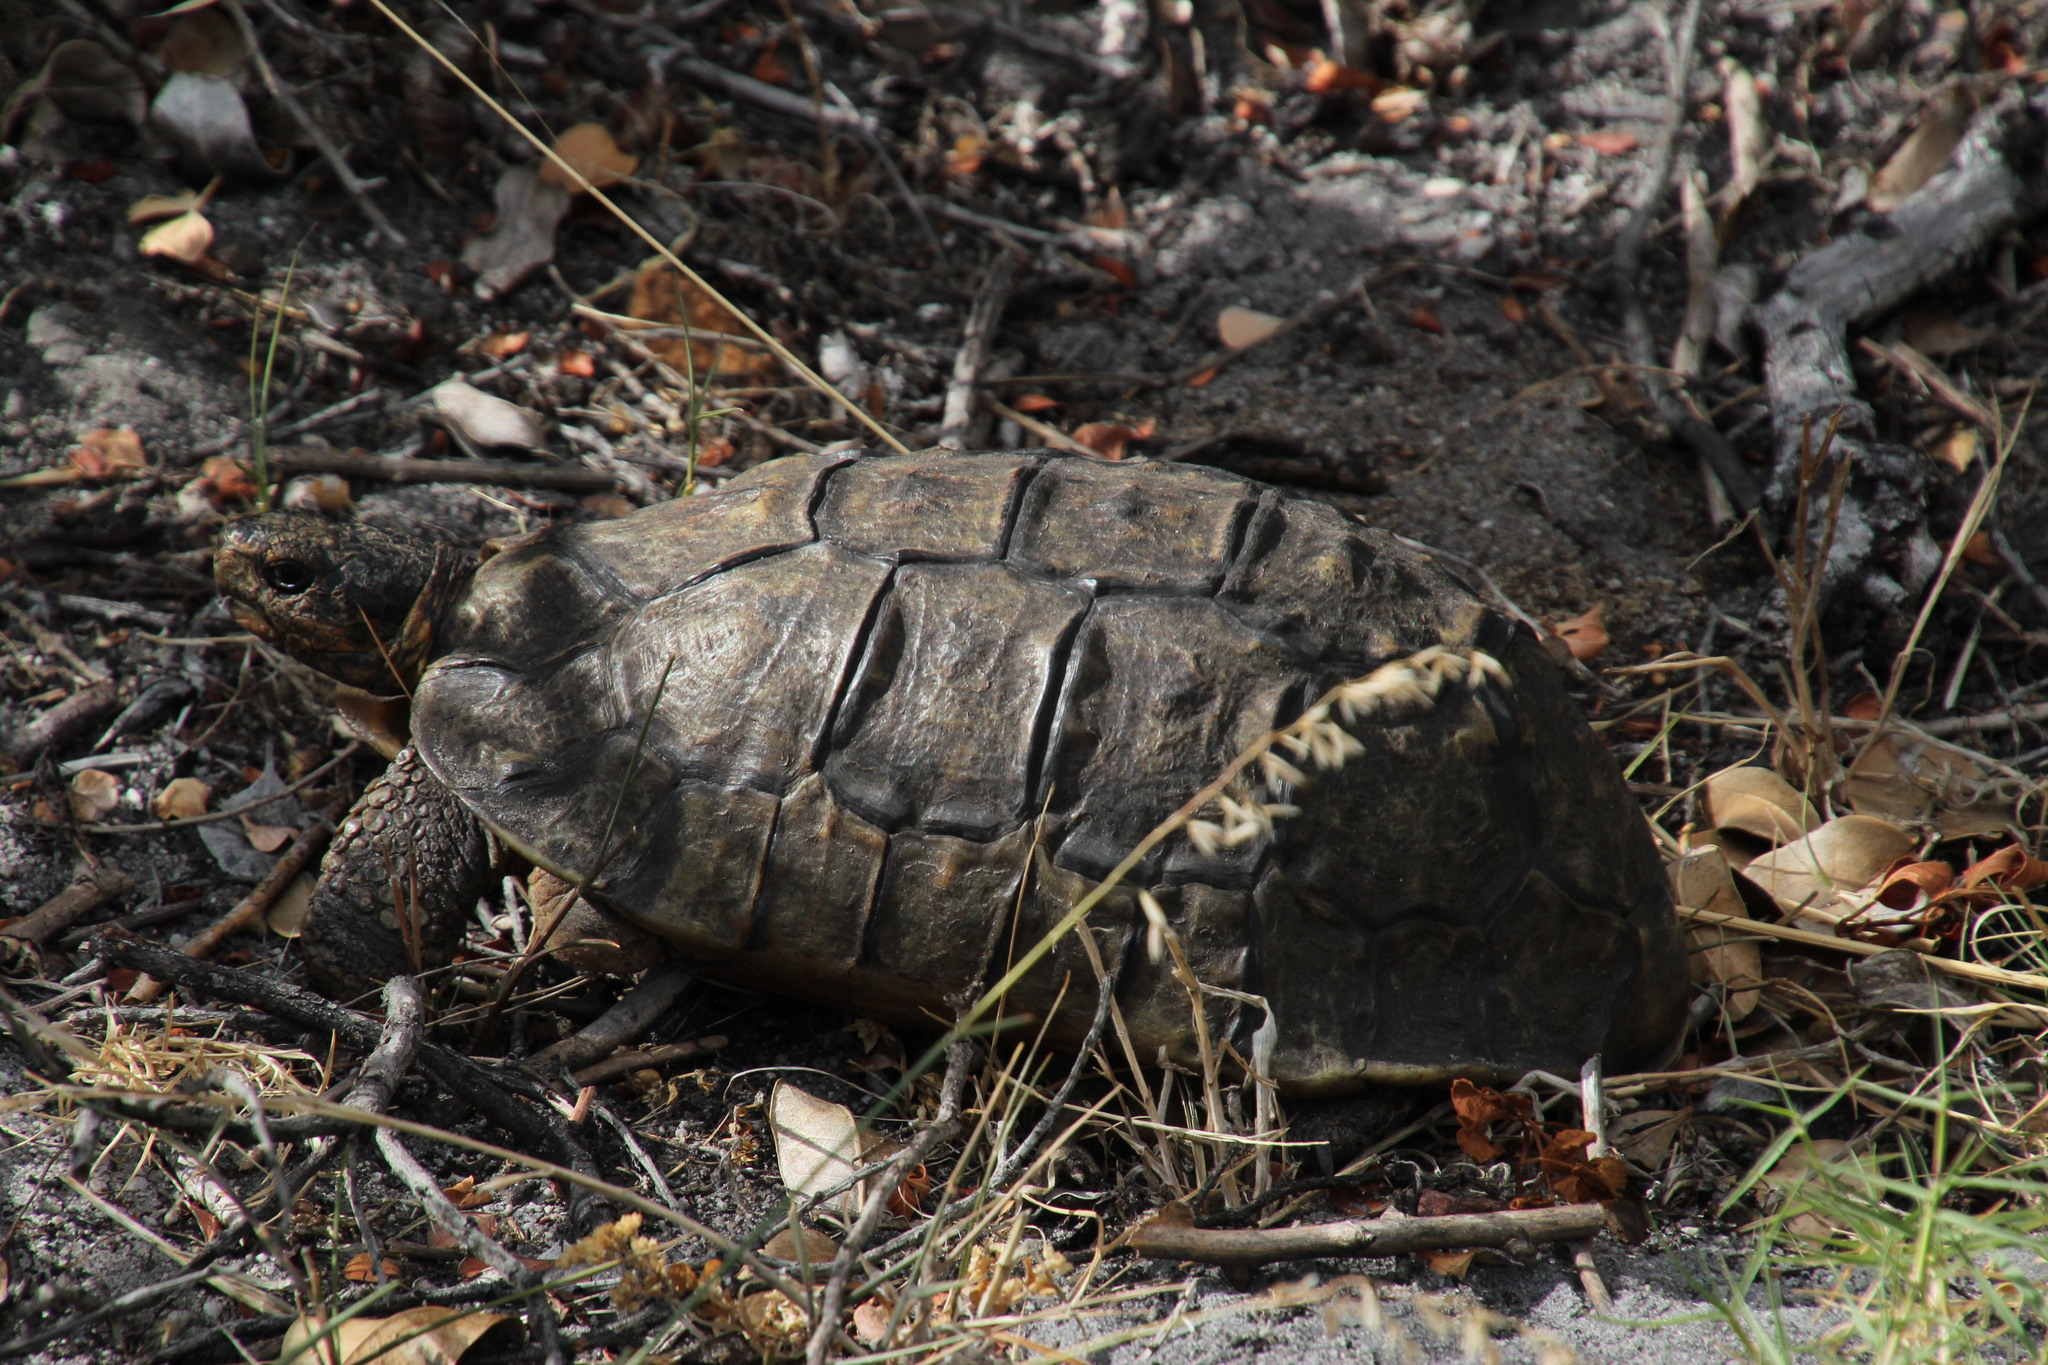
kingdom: Animalia
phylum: Chordata
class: Testudines
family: Testudinidae
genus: Chersina
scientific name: Chersina angulata
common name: South african bowsprit tortoise
